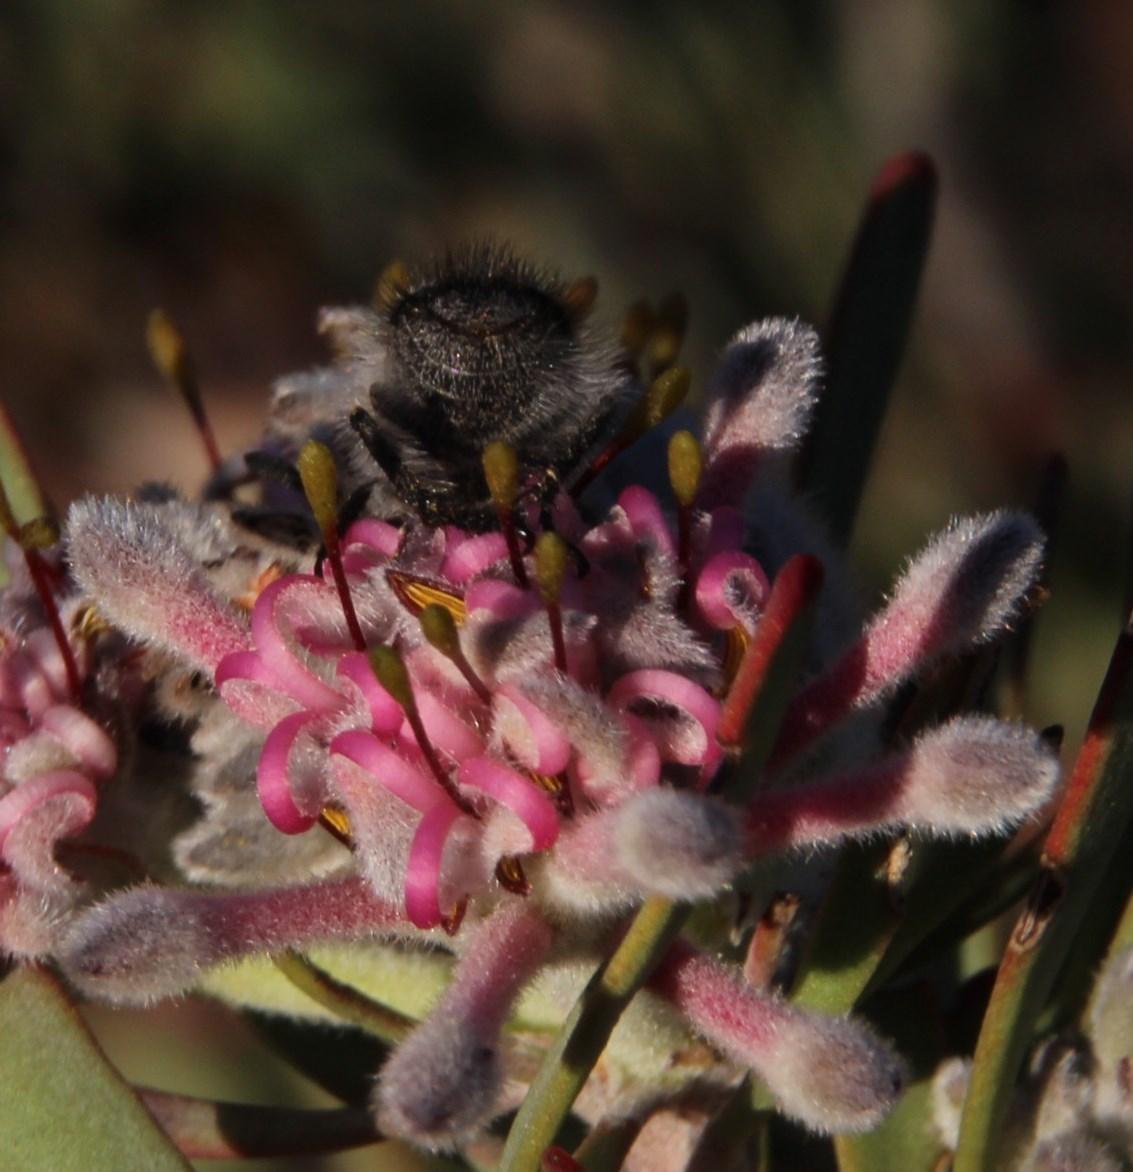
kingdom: Plantae
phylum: Tracheophyta
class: Magnoliopsida
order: Proteales
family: Proteaceae
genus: Vexatorella
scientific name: Vexatorella obtusata
